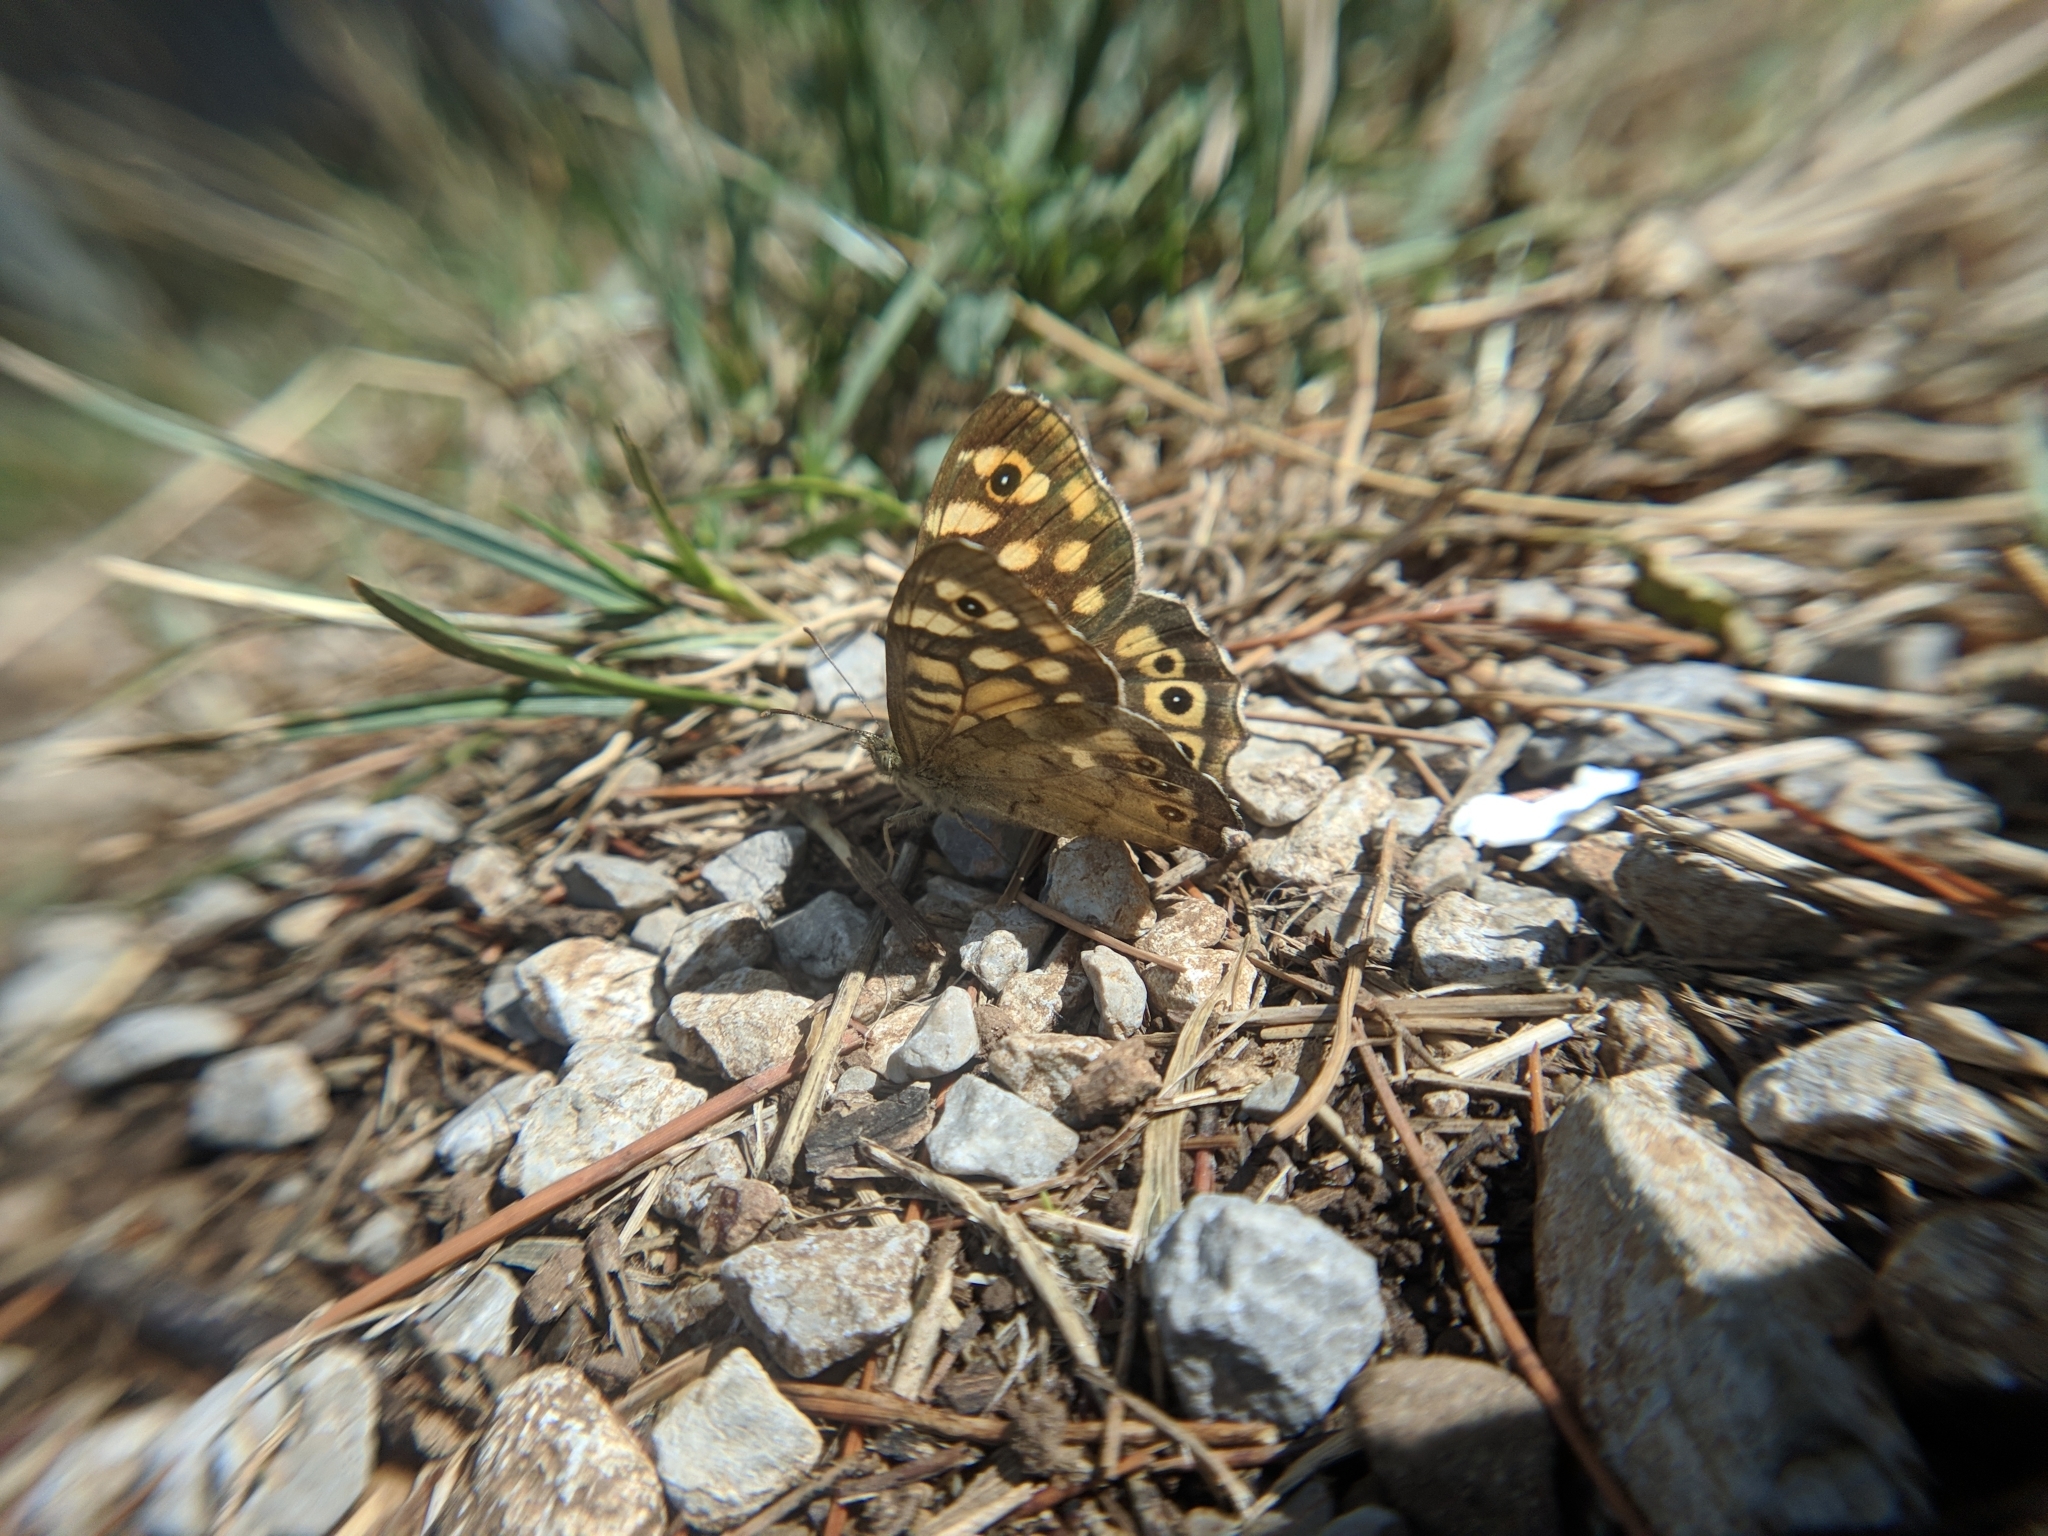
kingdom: Animalia
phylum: Arthropoda
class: Insecta
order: Lepidoptera
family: Nymphalidae
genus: Pararge
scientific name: Pararge aegeria
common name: Speckled wood
